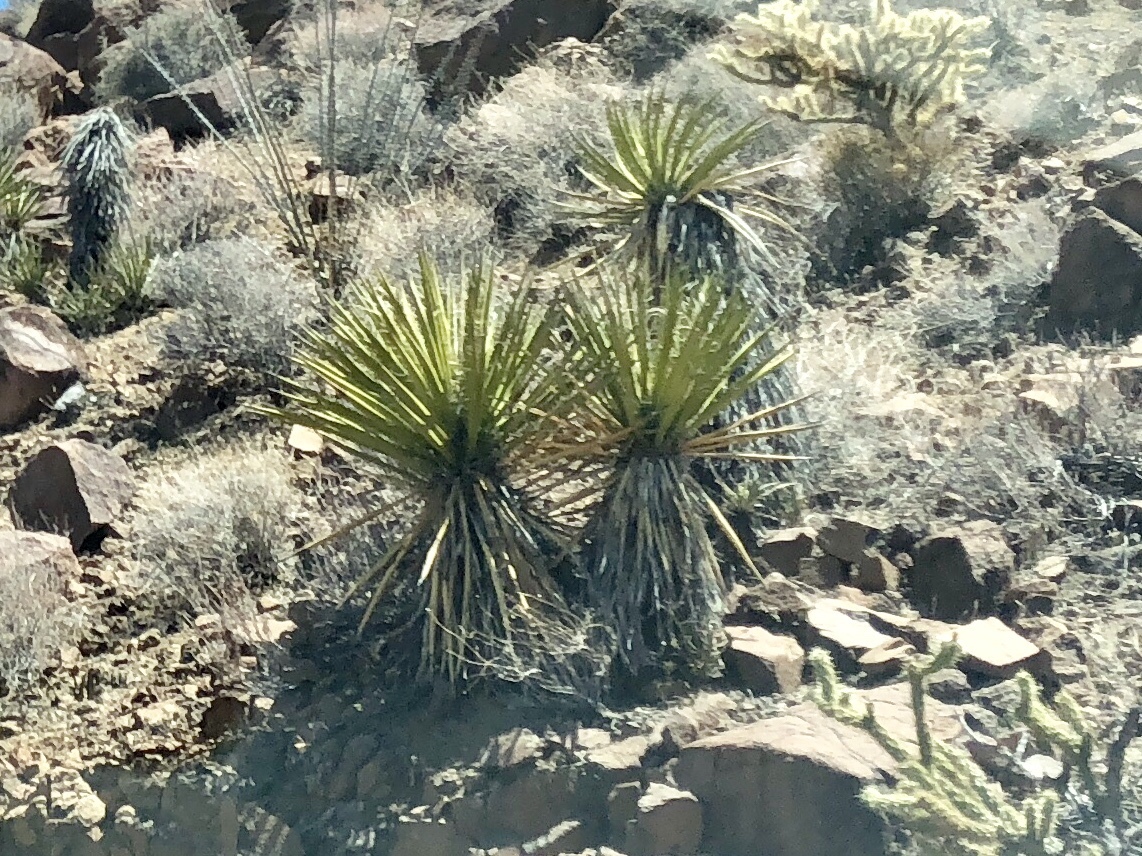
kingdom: Plantae
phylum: Tracheophyta
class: Liliopsida
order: Asparagales
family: Asparagaceae
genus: Yucca
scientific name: Yucca schidigera
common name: Mojave yucca
